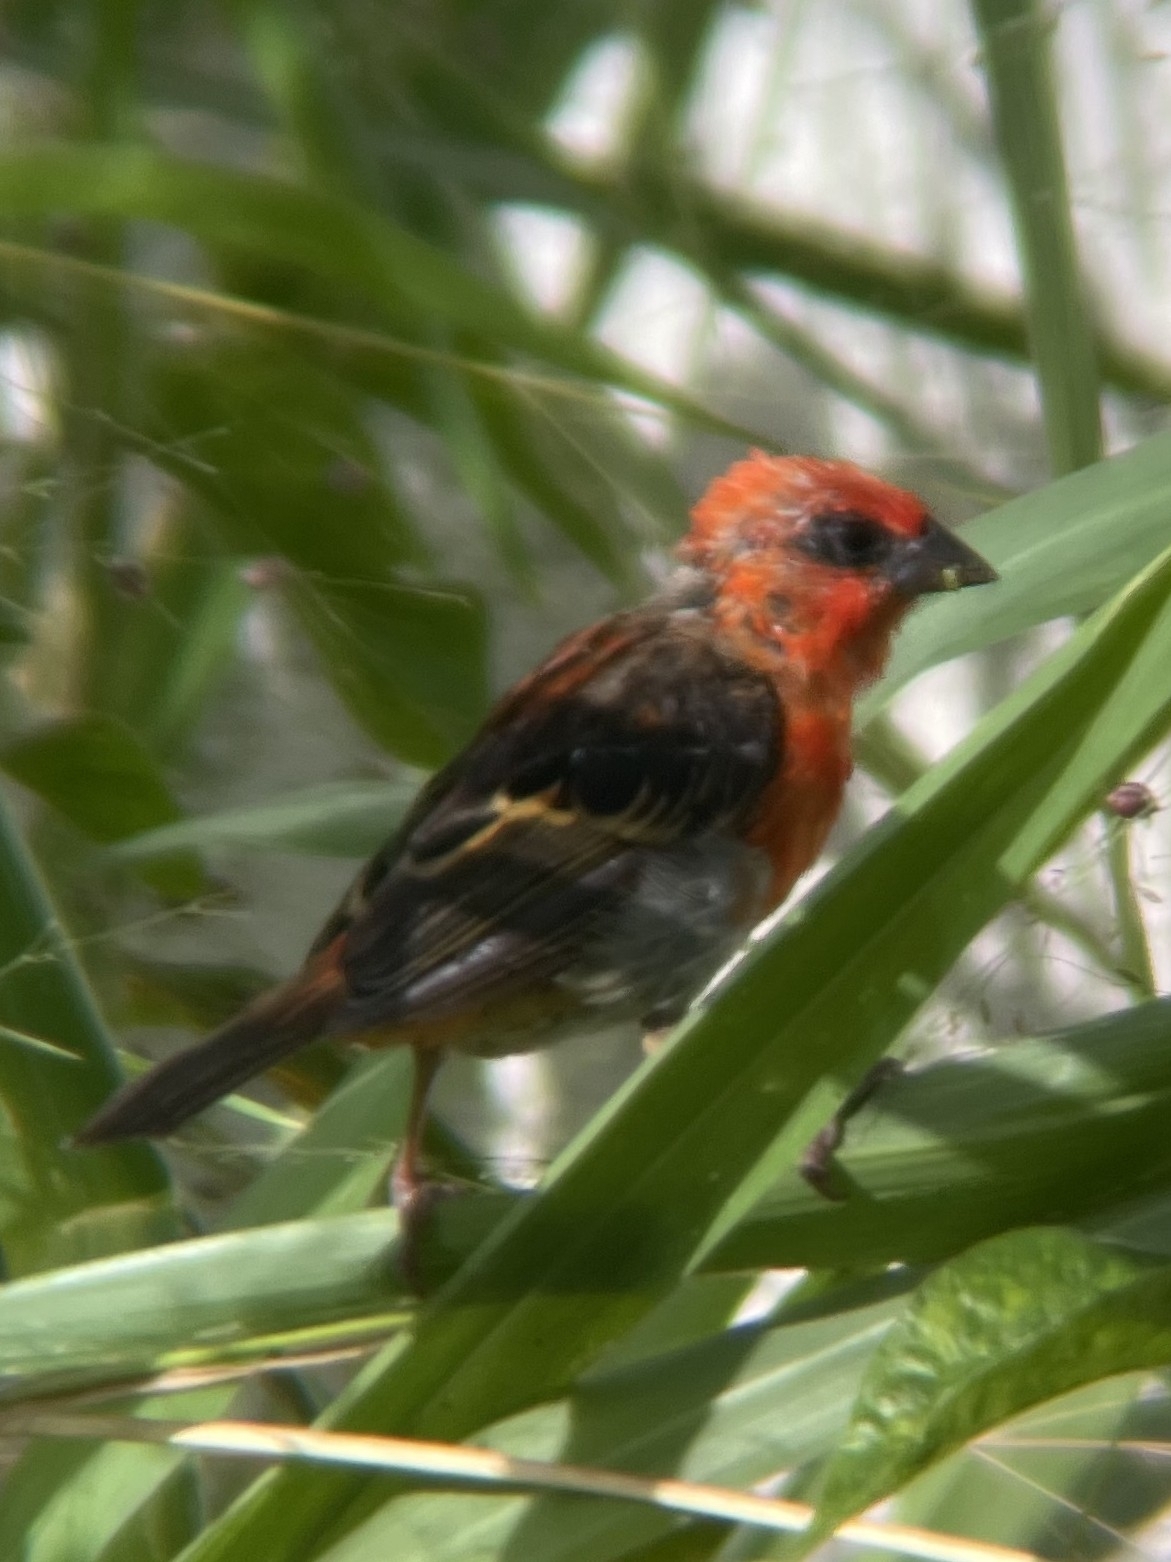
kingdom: Animalia
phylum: Chordata
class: Aves
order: Passeriformes
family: Ploceidae
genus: Foudia
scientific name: Foudia madagascariensis
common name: Red fody
